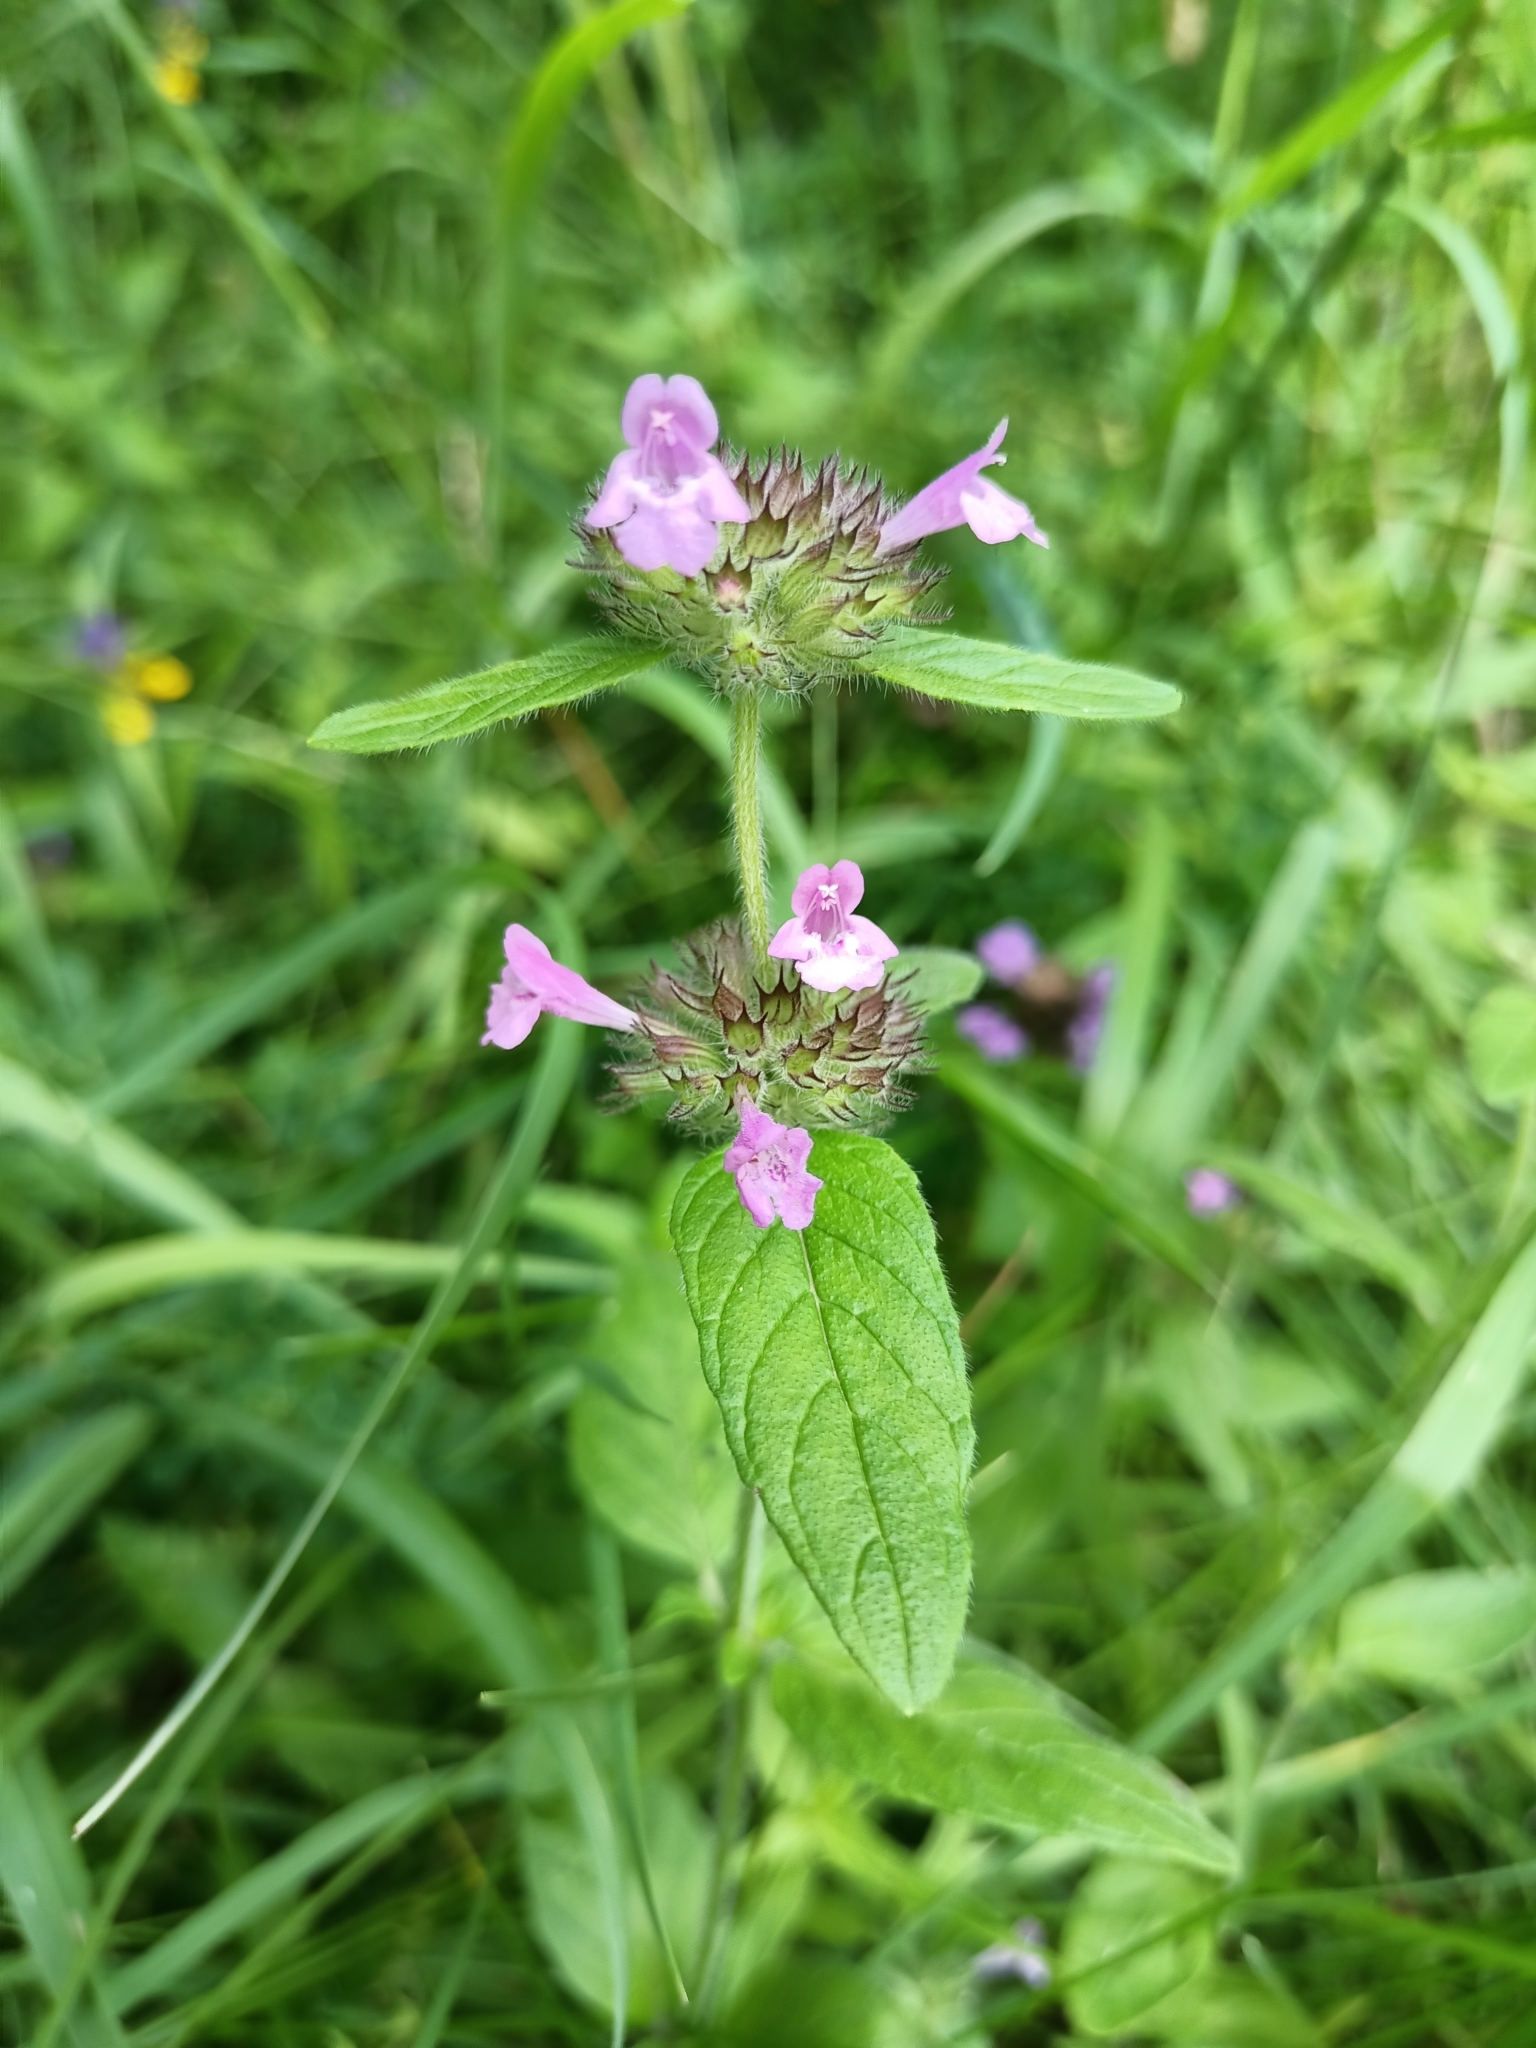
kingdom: Plantae
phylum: Tracheophyta
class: Magnoliopsida
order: Lamiales
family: Lamiaceae
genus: Clinopodium
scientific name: Clinopodium vulgare
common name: Wild basil
